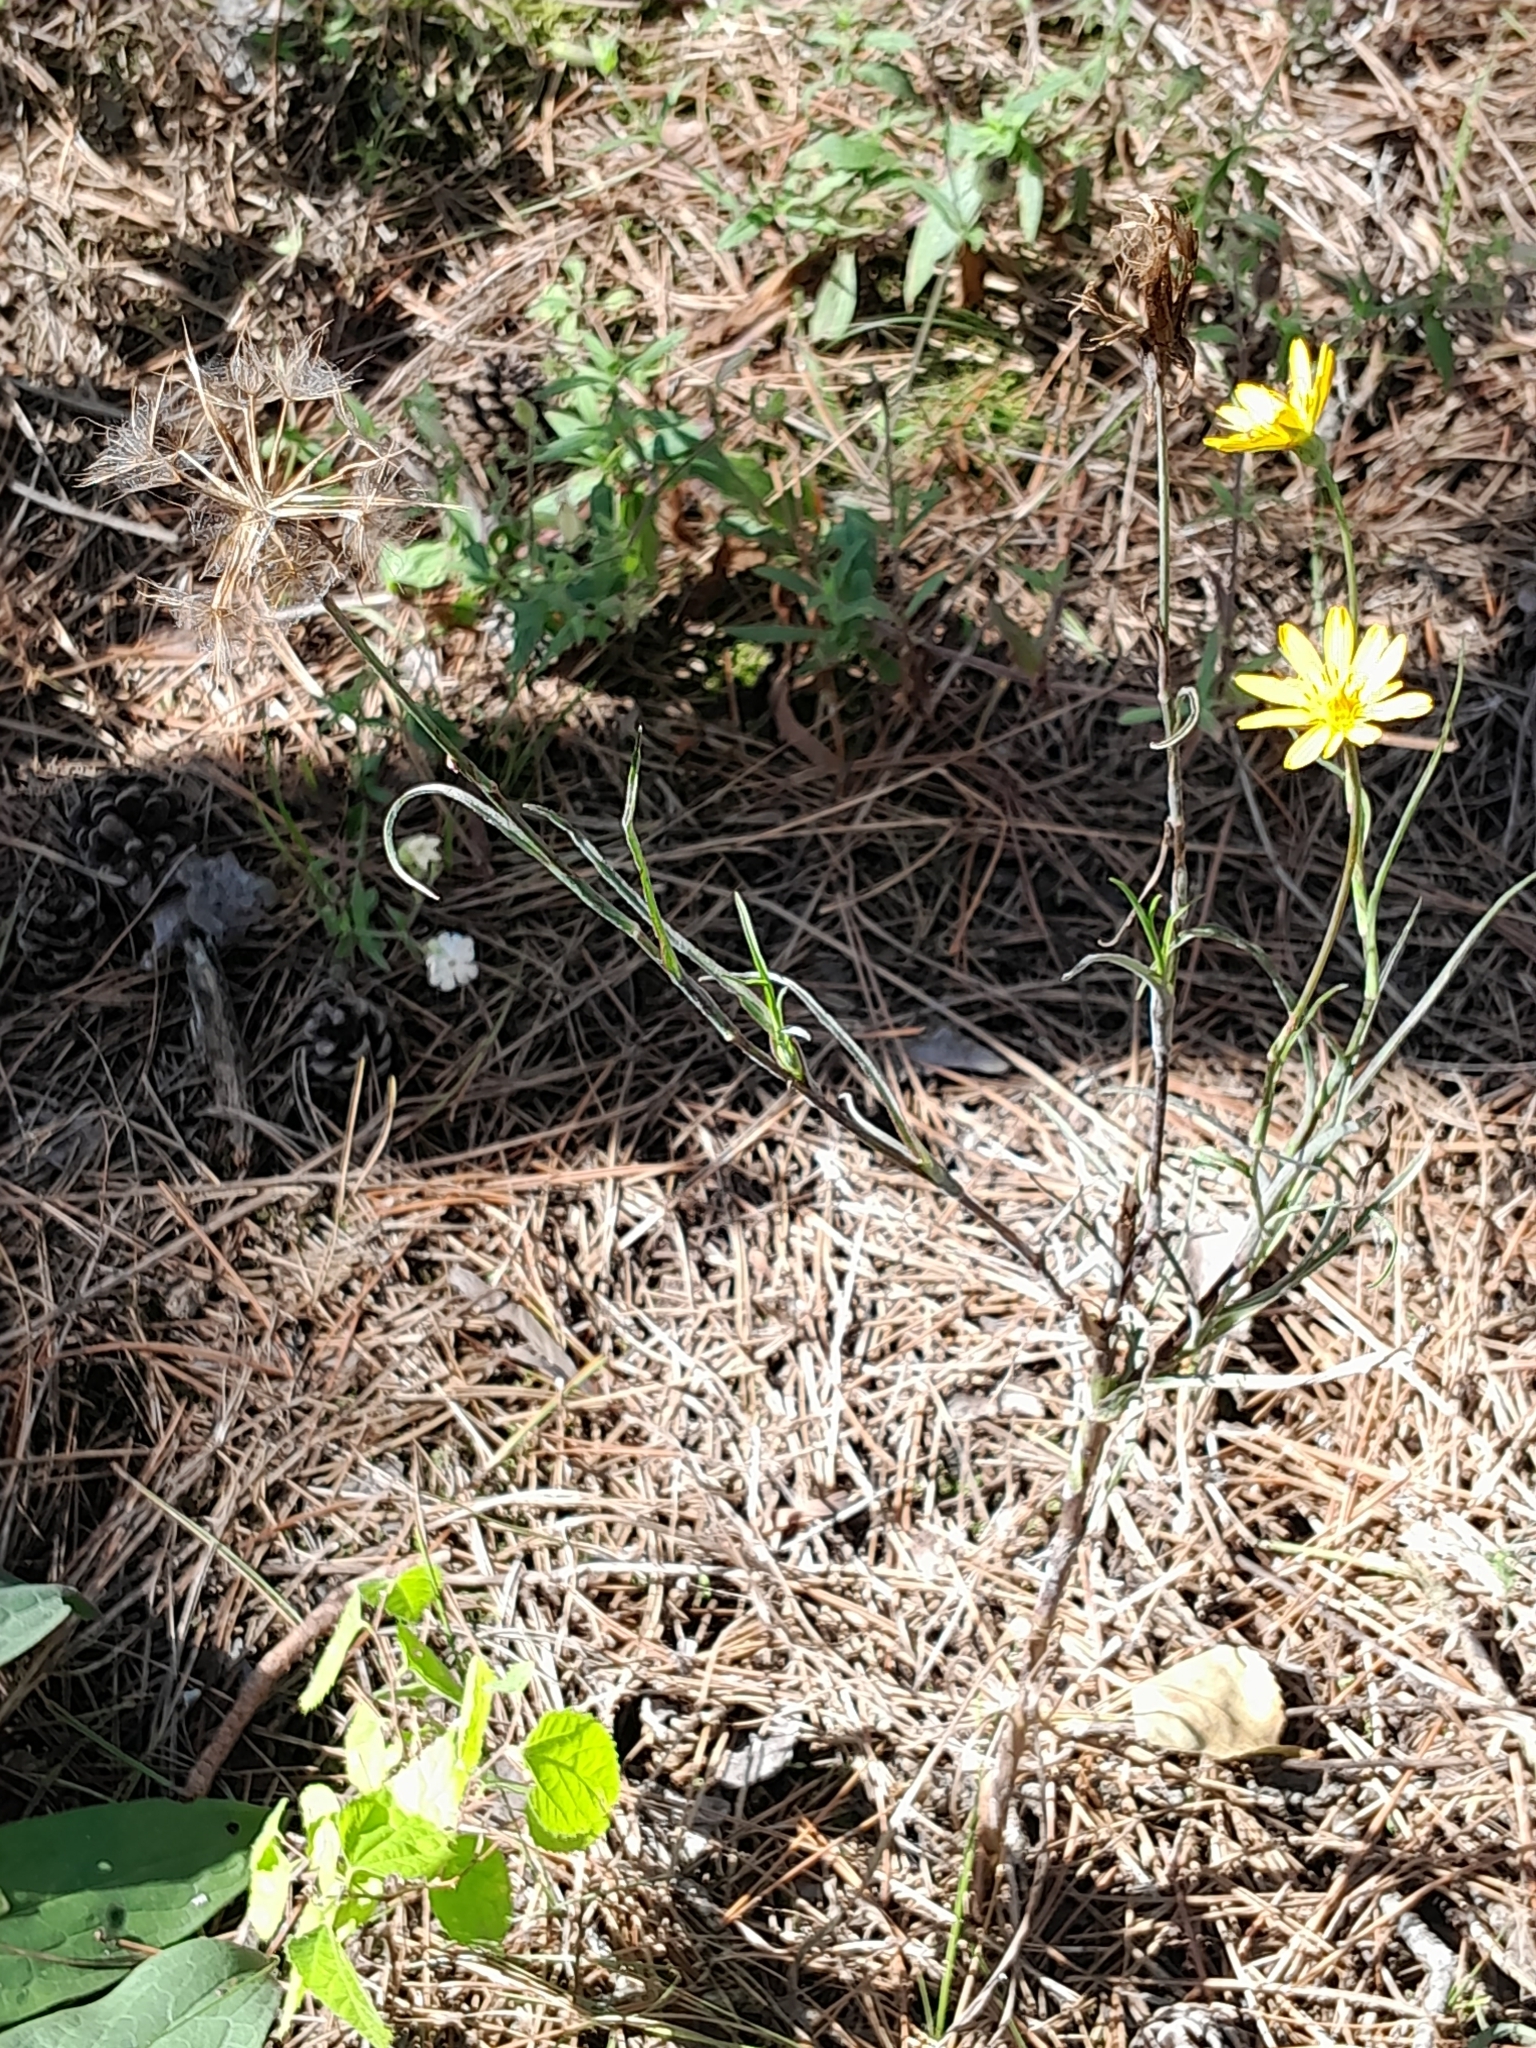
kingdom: Plantae
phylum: Tracheophyta
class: Magnoliopsida
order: Asterales
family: Asteraceae
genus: Tragopogon
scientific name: Tragopogon orientalis
